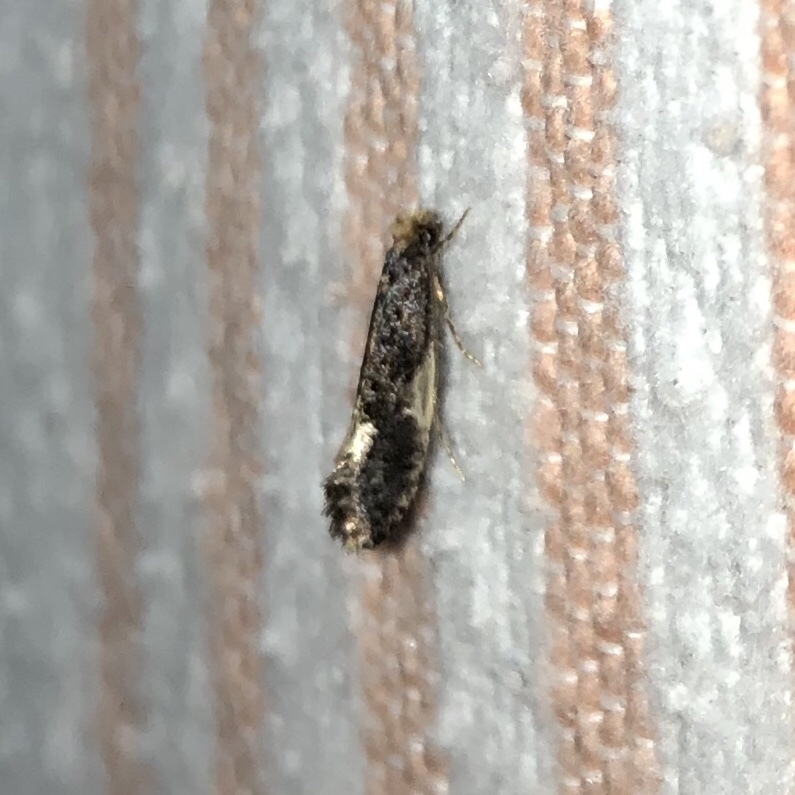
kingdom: Animalia
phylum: Arthropoda
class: Insecta
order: Lepidoptera
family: Tineidae
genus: Monopis
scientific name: Monopis spilotella
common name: Orange-headed monopis
